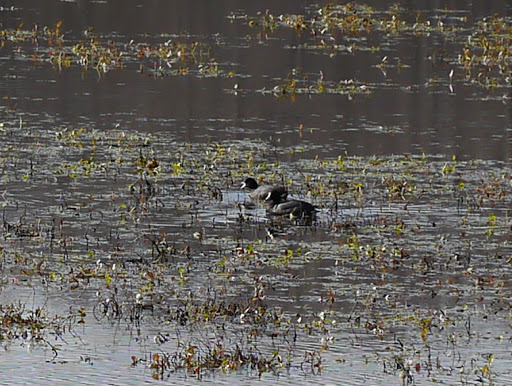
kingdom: Animalia
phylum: Chordata
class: Aves
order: Gruiformes
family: Rallidae
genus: Fulica
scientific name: Fulica americana
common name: American coot
